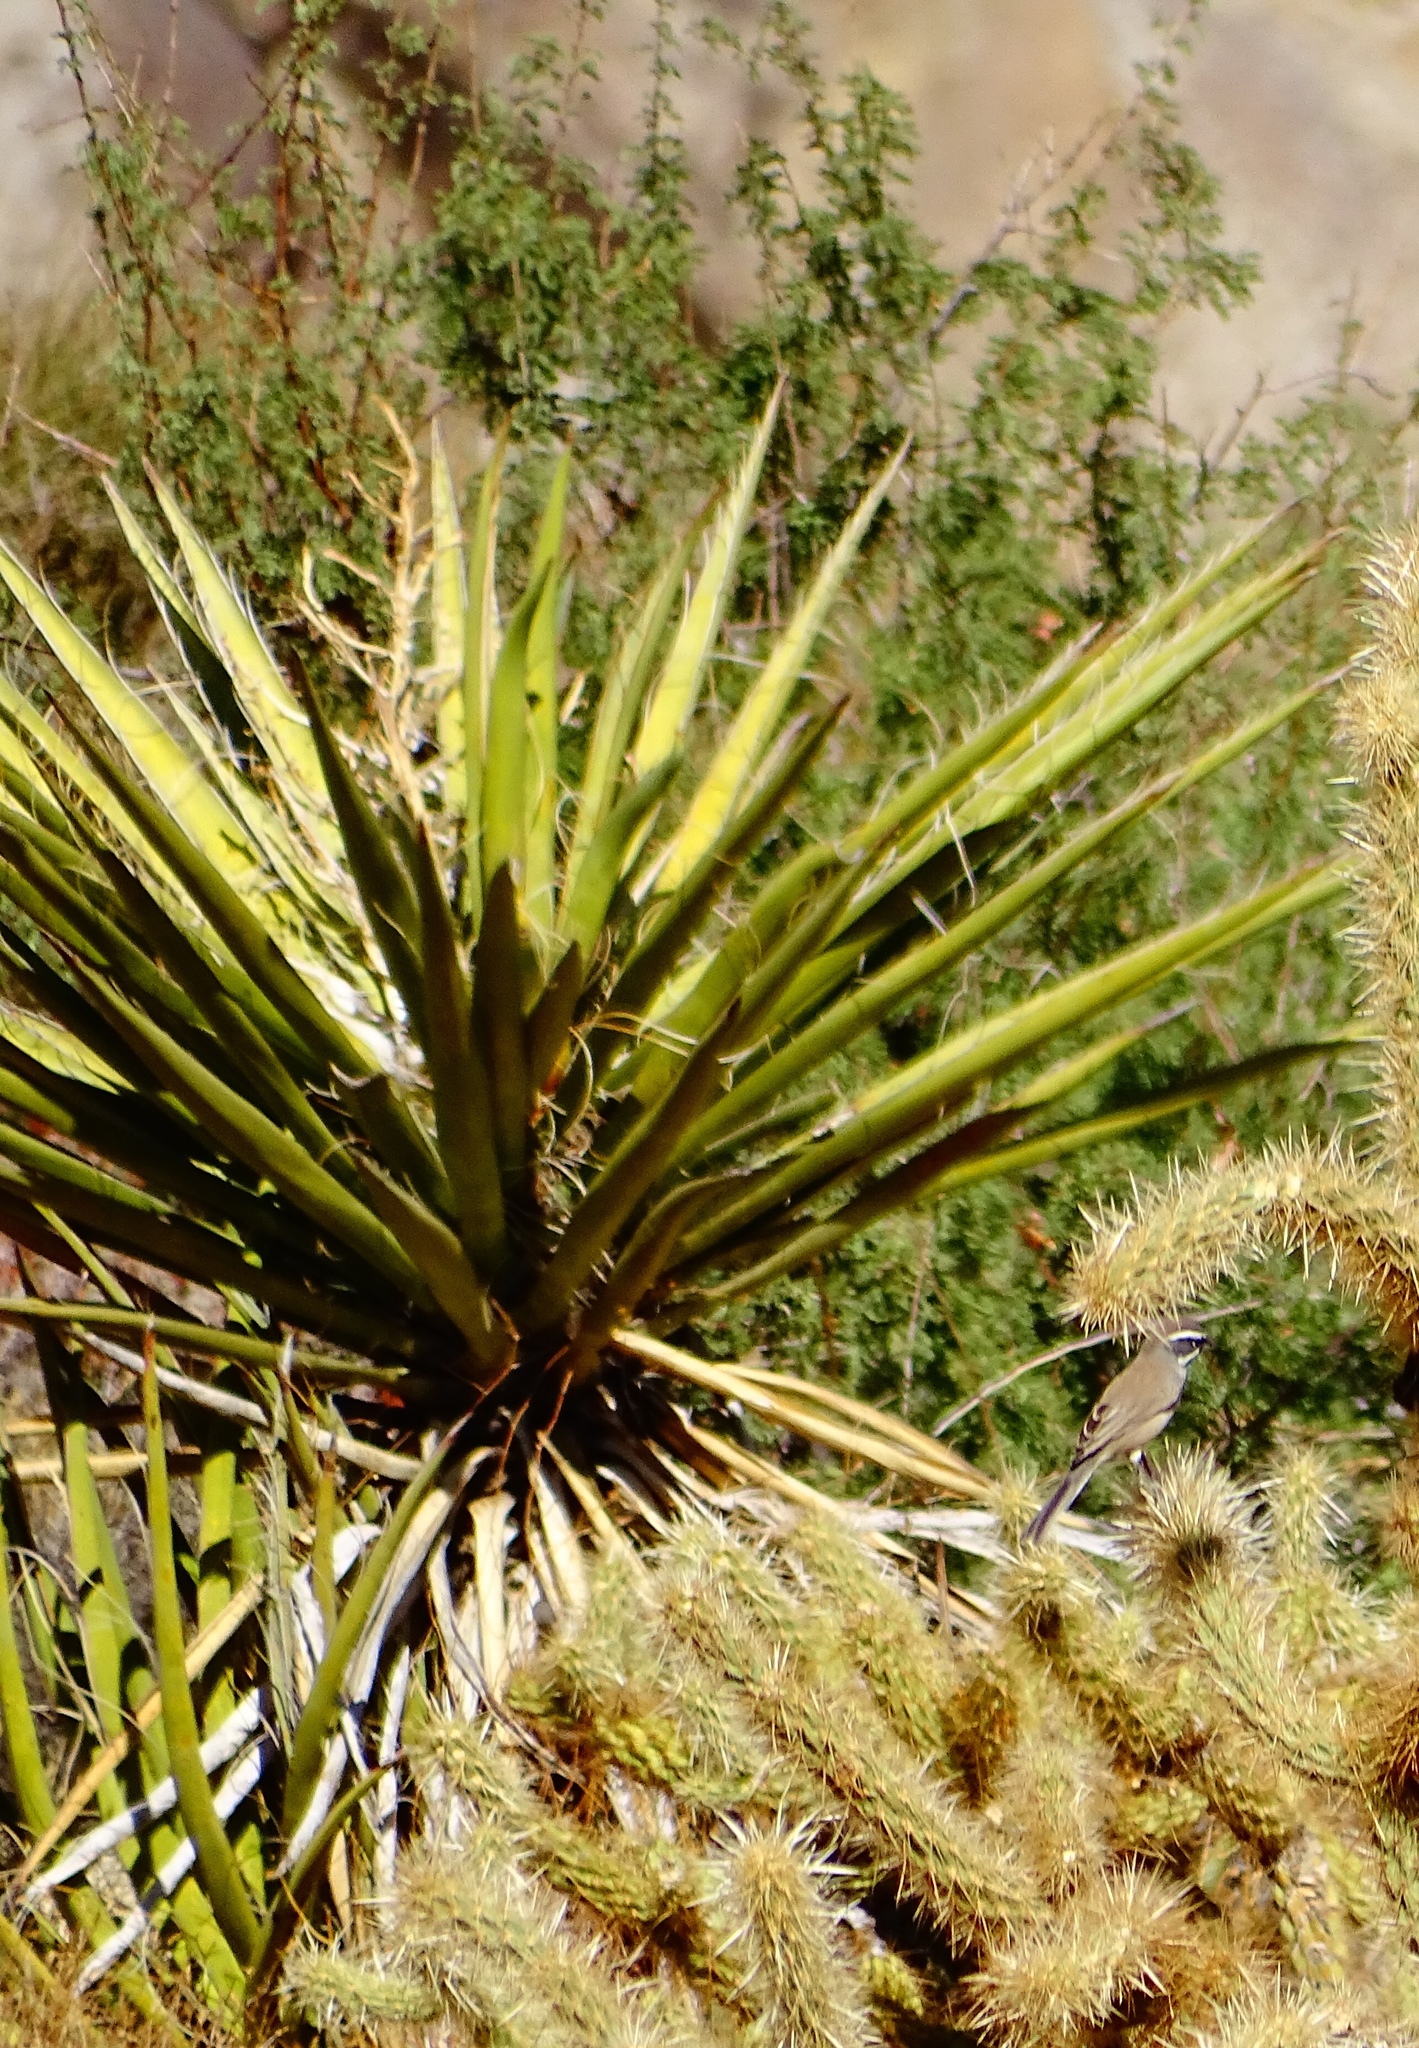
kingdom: Plantae
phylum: Tracheophyta
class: Liliopsida
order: Asparagales
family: Asparagaceae
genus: Yucca
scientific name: Yucca schidigera
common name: Mojave yucca
